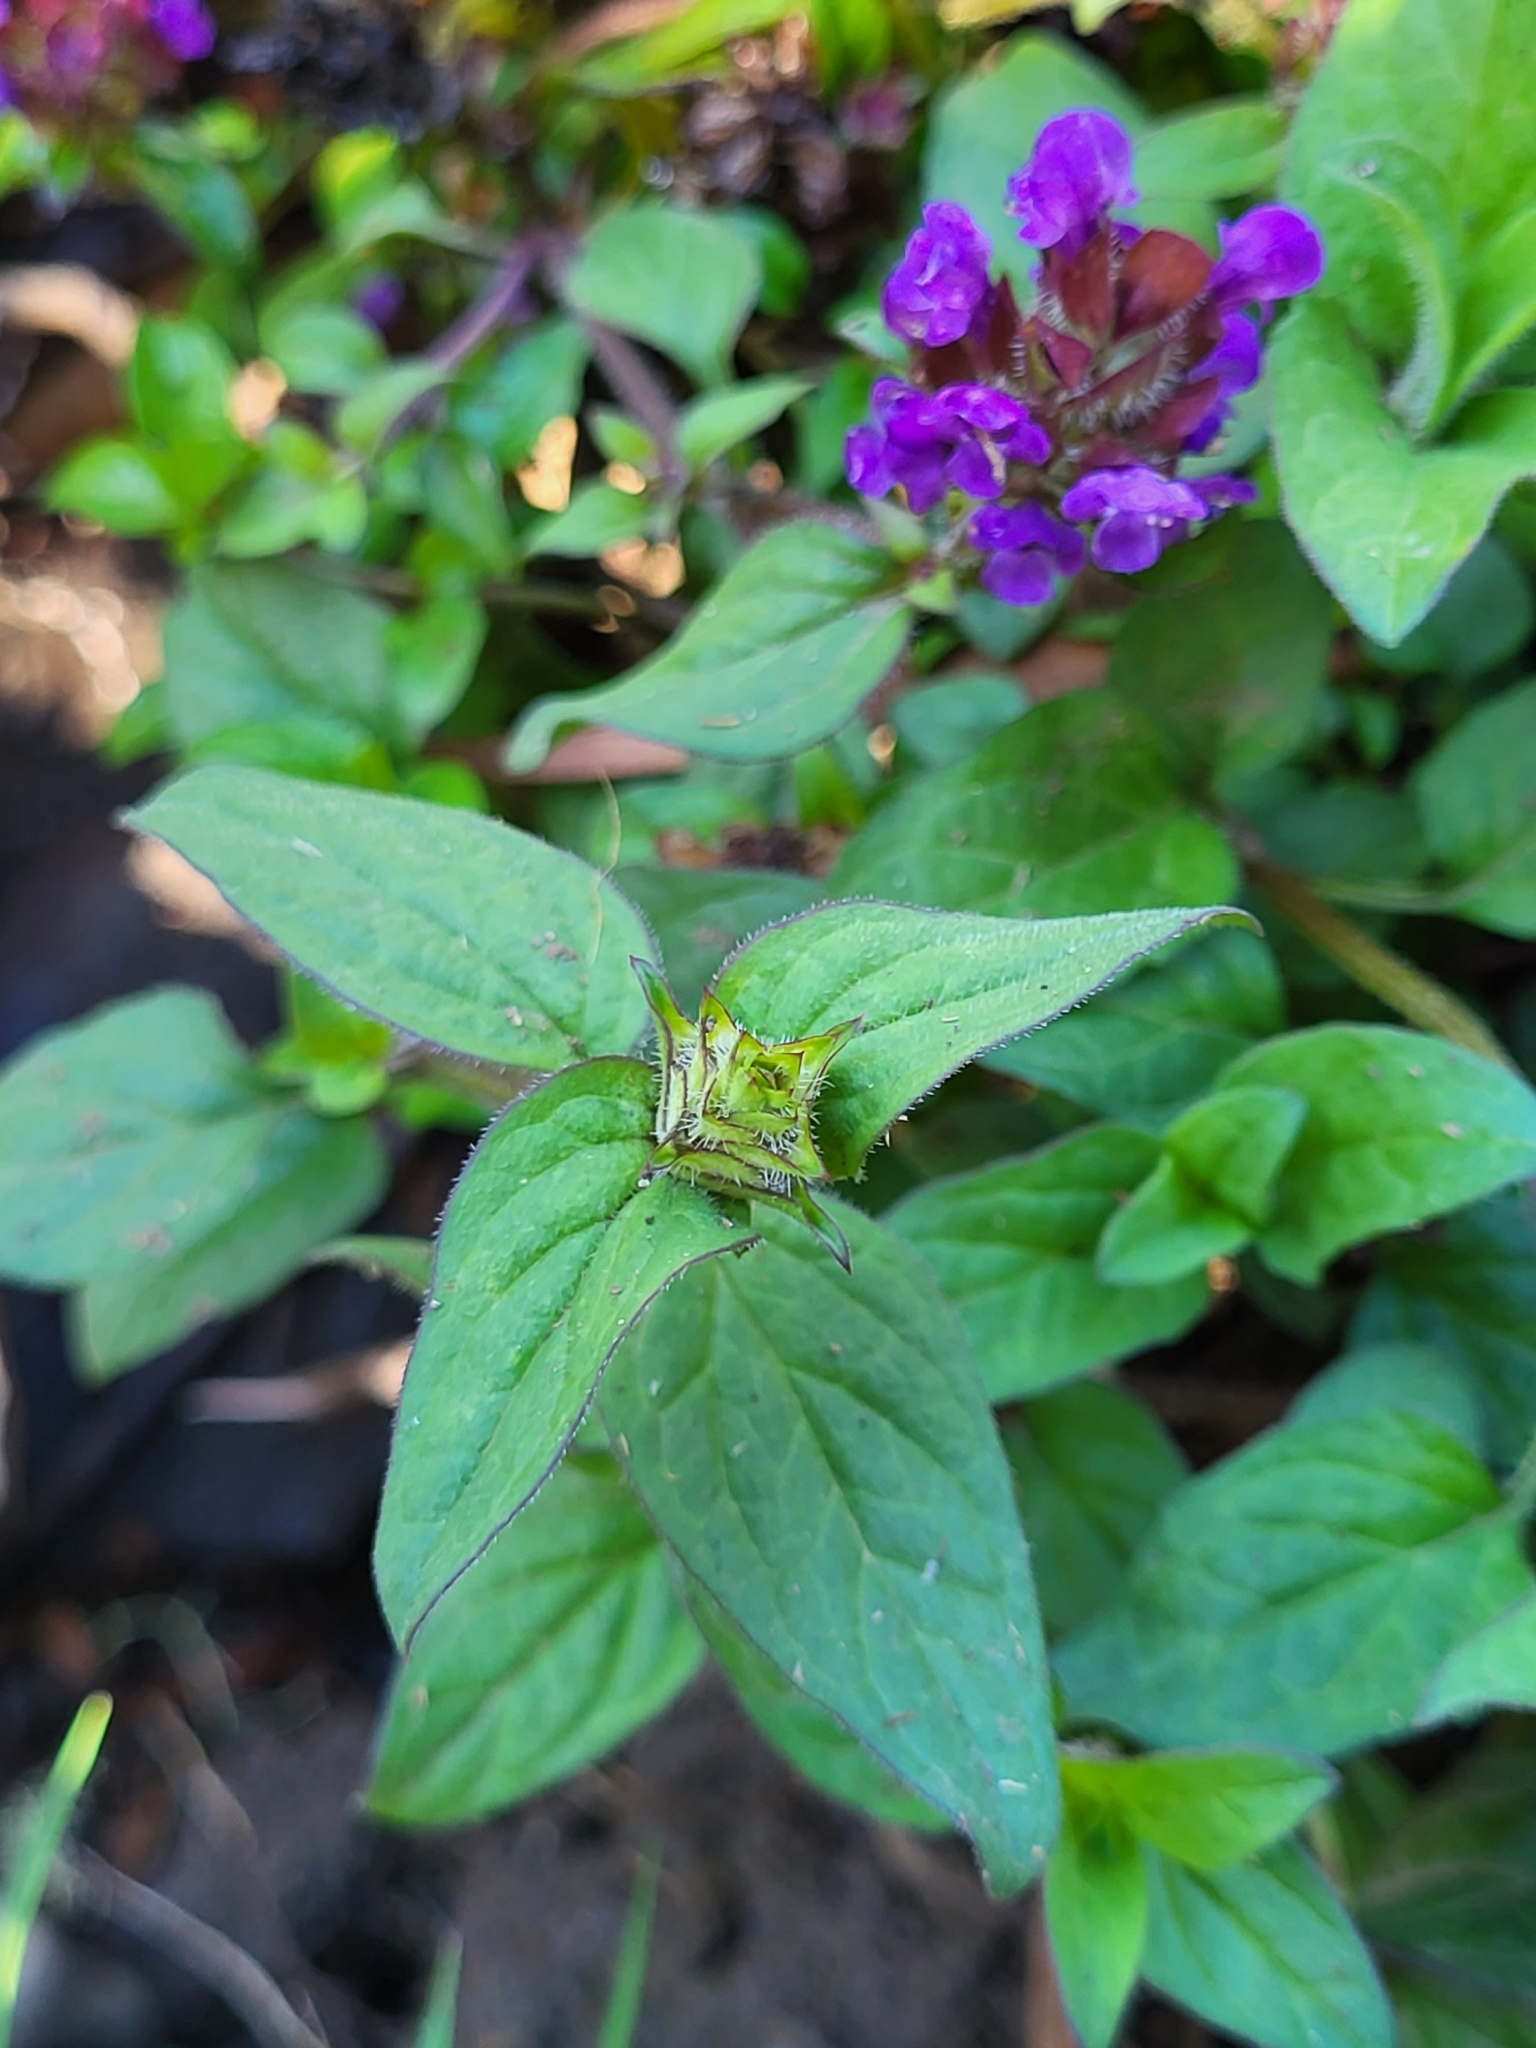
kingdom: Plantae
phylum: Tracheophyta
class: Magnoliopsida
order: Lamiales
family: Lamiaceae
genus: Prunella
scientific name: Prunella vulgaris
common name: Heal-all
